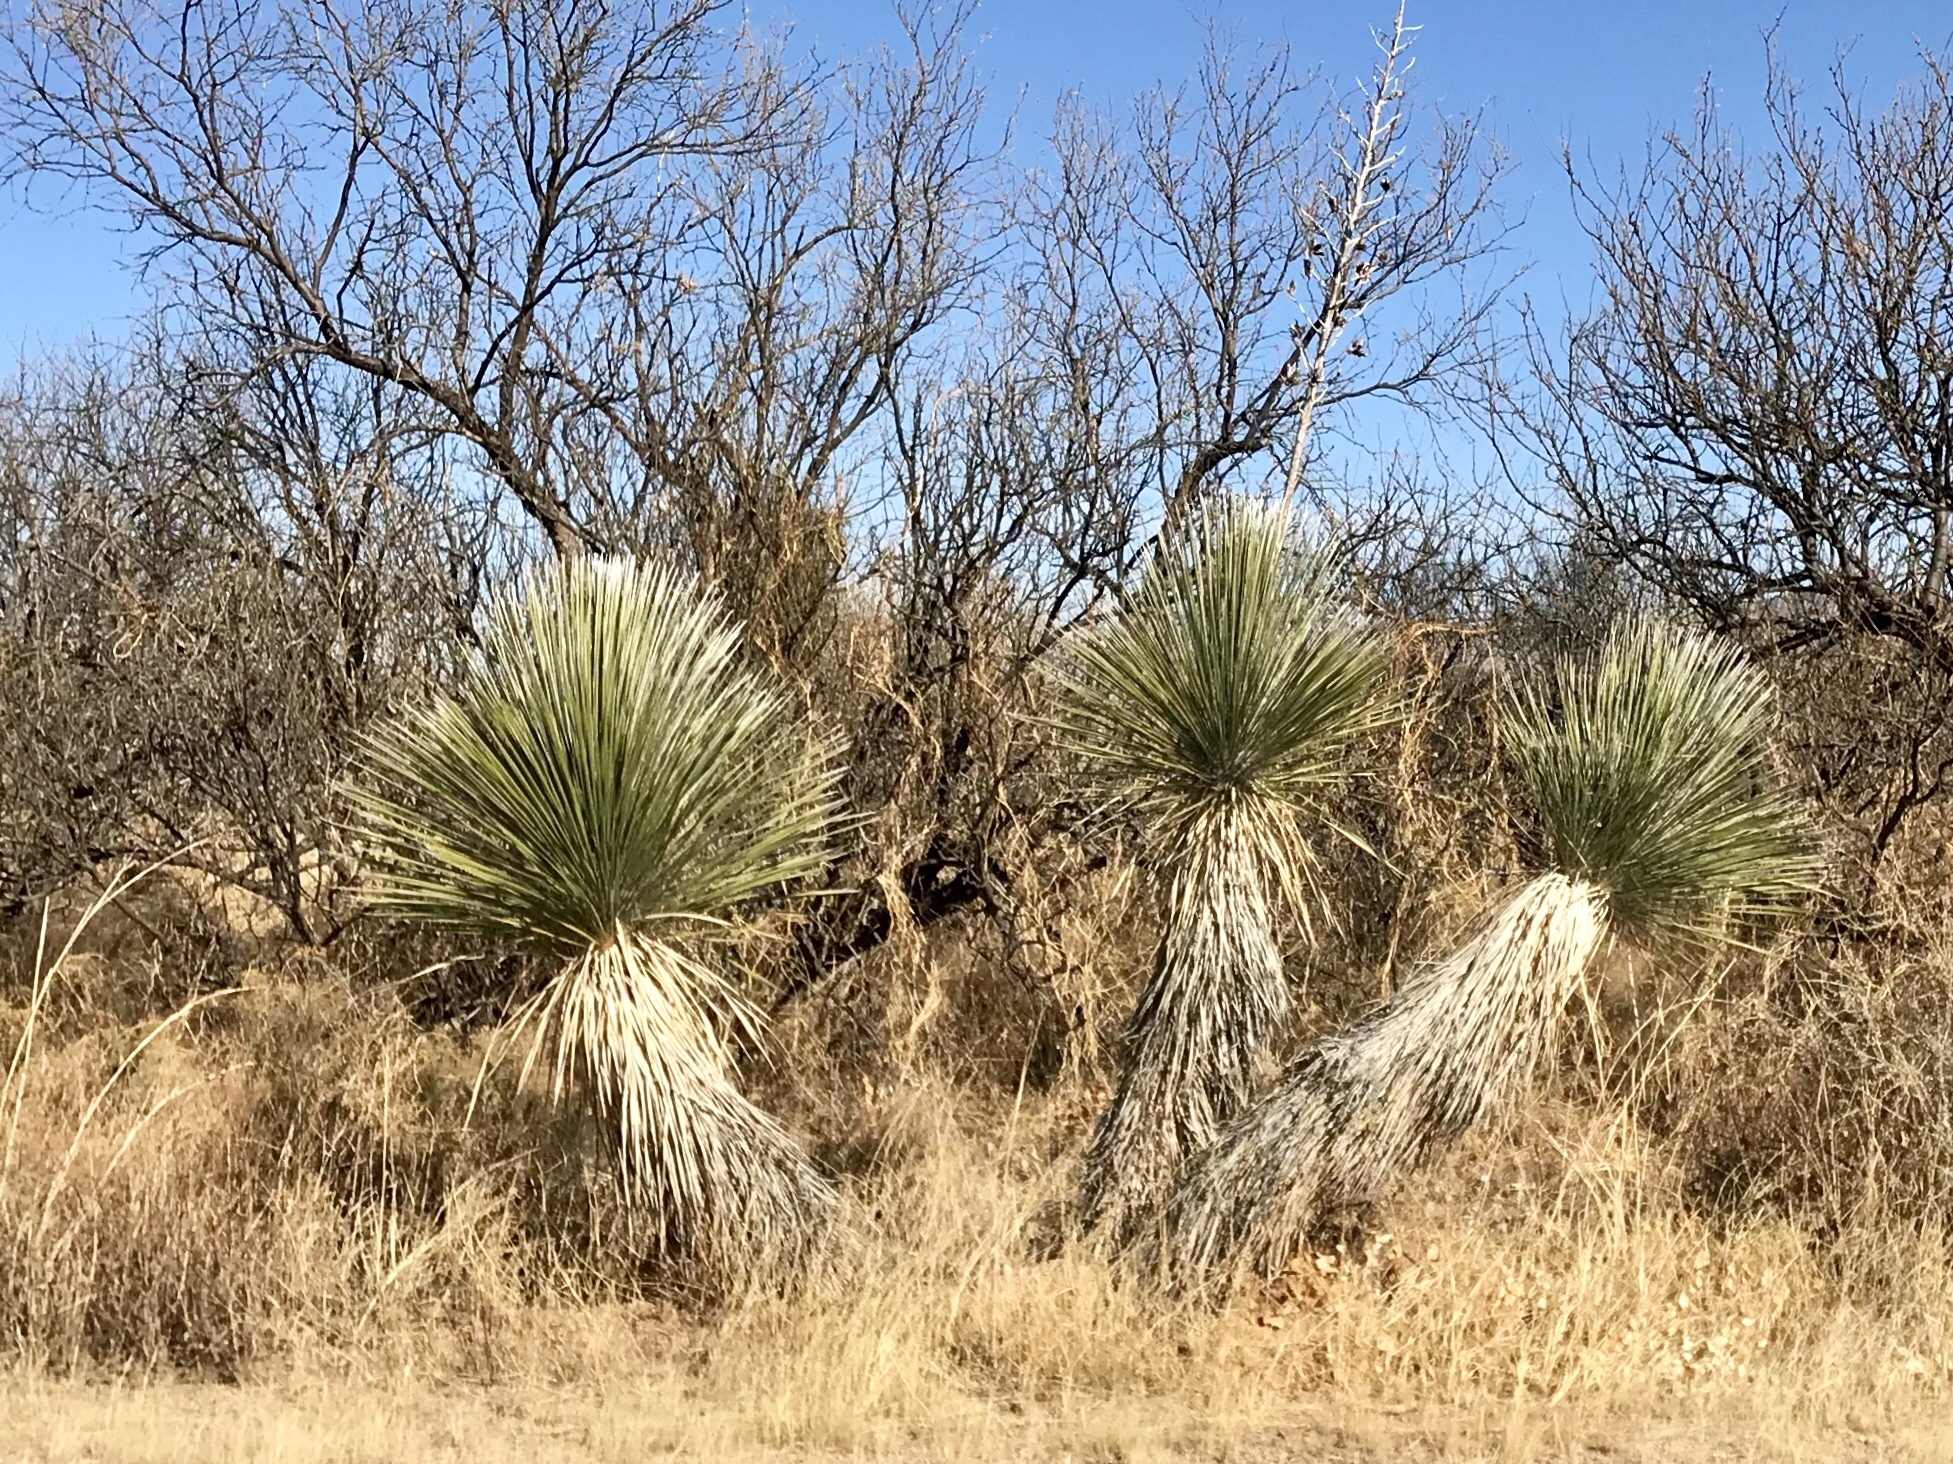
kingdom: Plantae
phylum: Tracheophyta
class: Liliopsida
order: Asparagales
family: Asparagaceae
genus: Yucca
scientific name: Yucca elata
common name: Palmella
